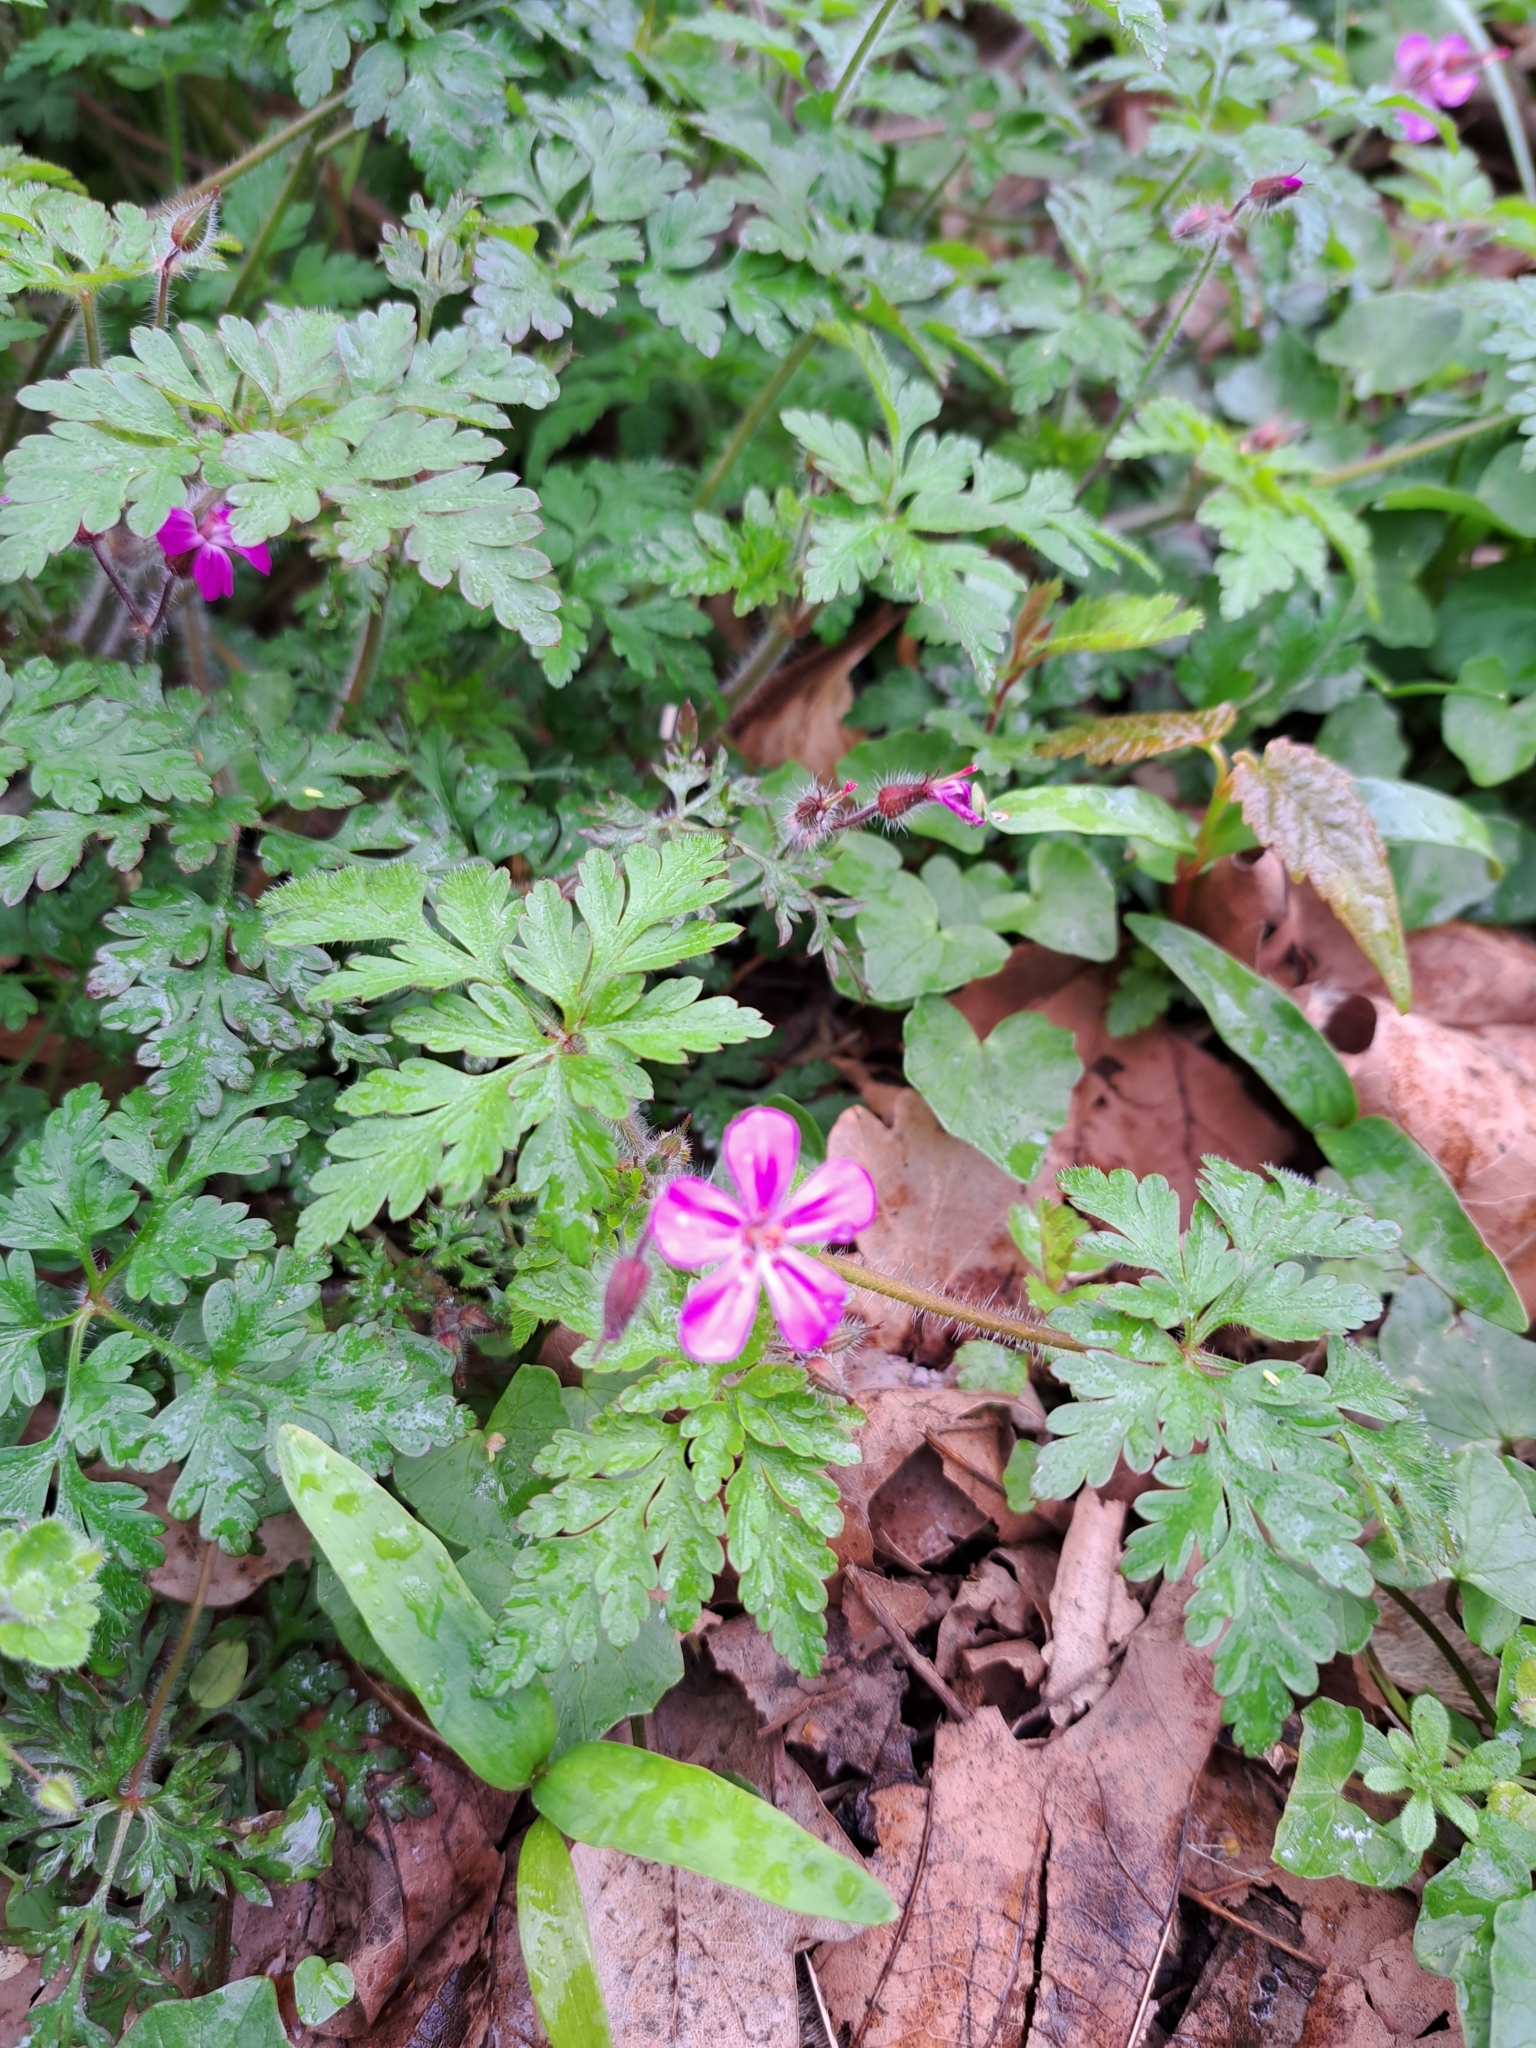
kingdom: Plantae
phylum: Tracheophyta
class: Magnoliopsida
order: Geraniales
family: Geraniaceae
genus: Geranium
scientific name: Geranium robertianum
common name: Herb-robert
